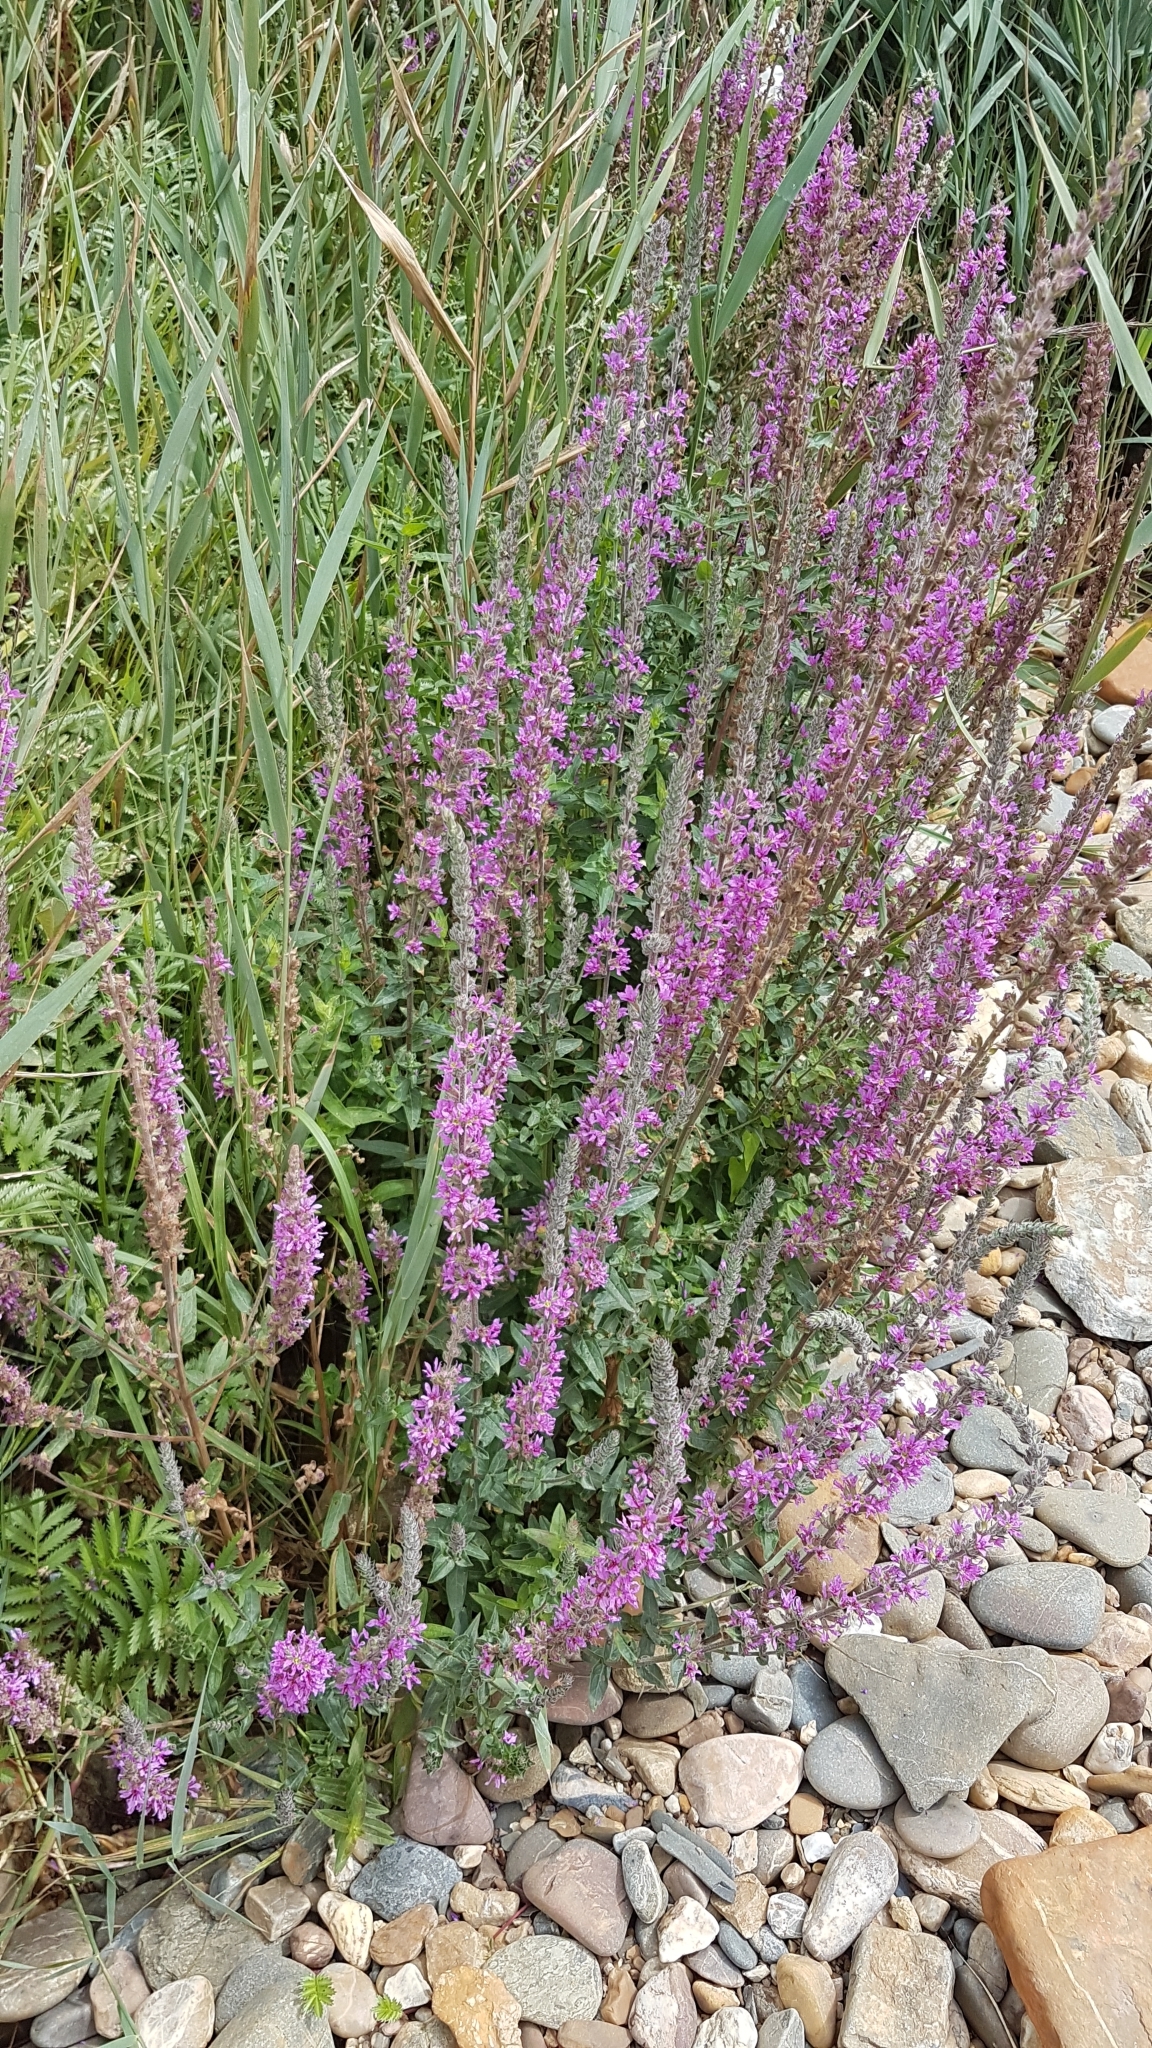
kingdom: Plantae
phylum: Tracheophyta
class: Magnoliopsida
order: Myrtales
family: Lythraceae
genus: Lythrum
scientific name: Lythrum salicaria
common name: Purple loosestrife
